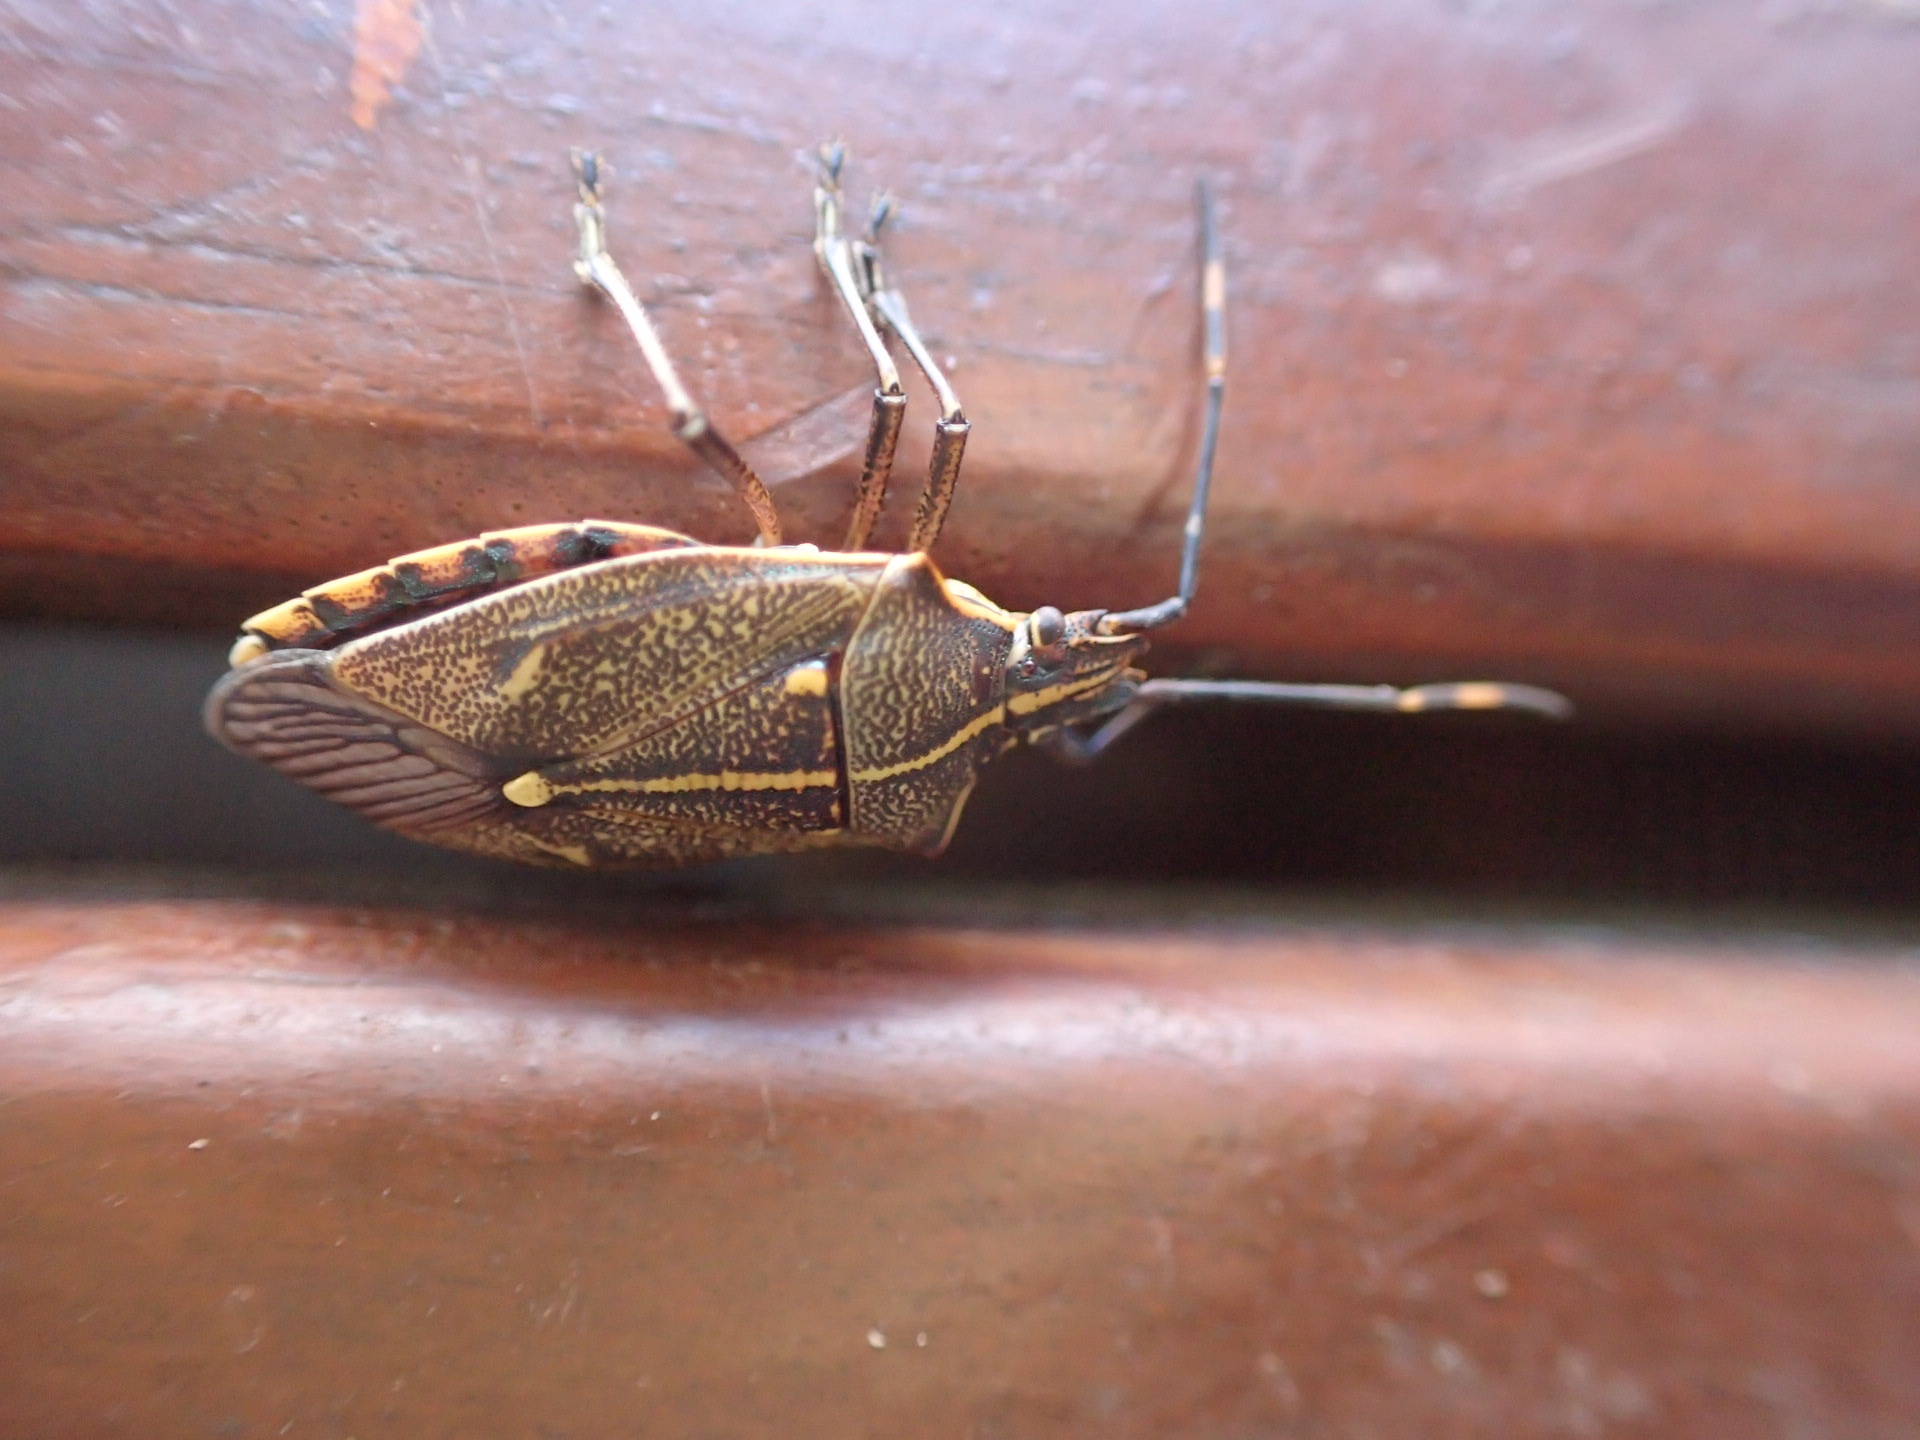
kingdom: Animalia
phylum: Arthropoda
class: Insecta
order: Hemiptera
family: Pentatomidae
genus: Omyta
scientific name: Omyta centrolineata
